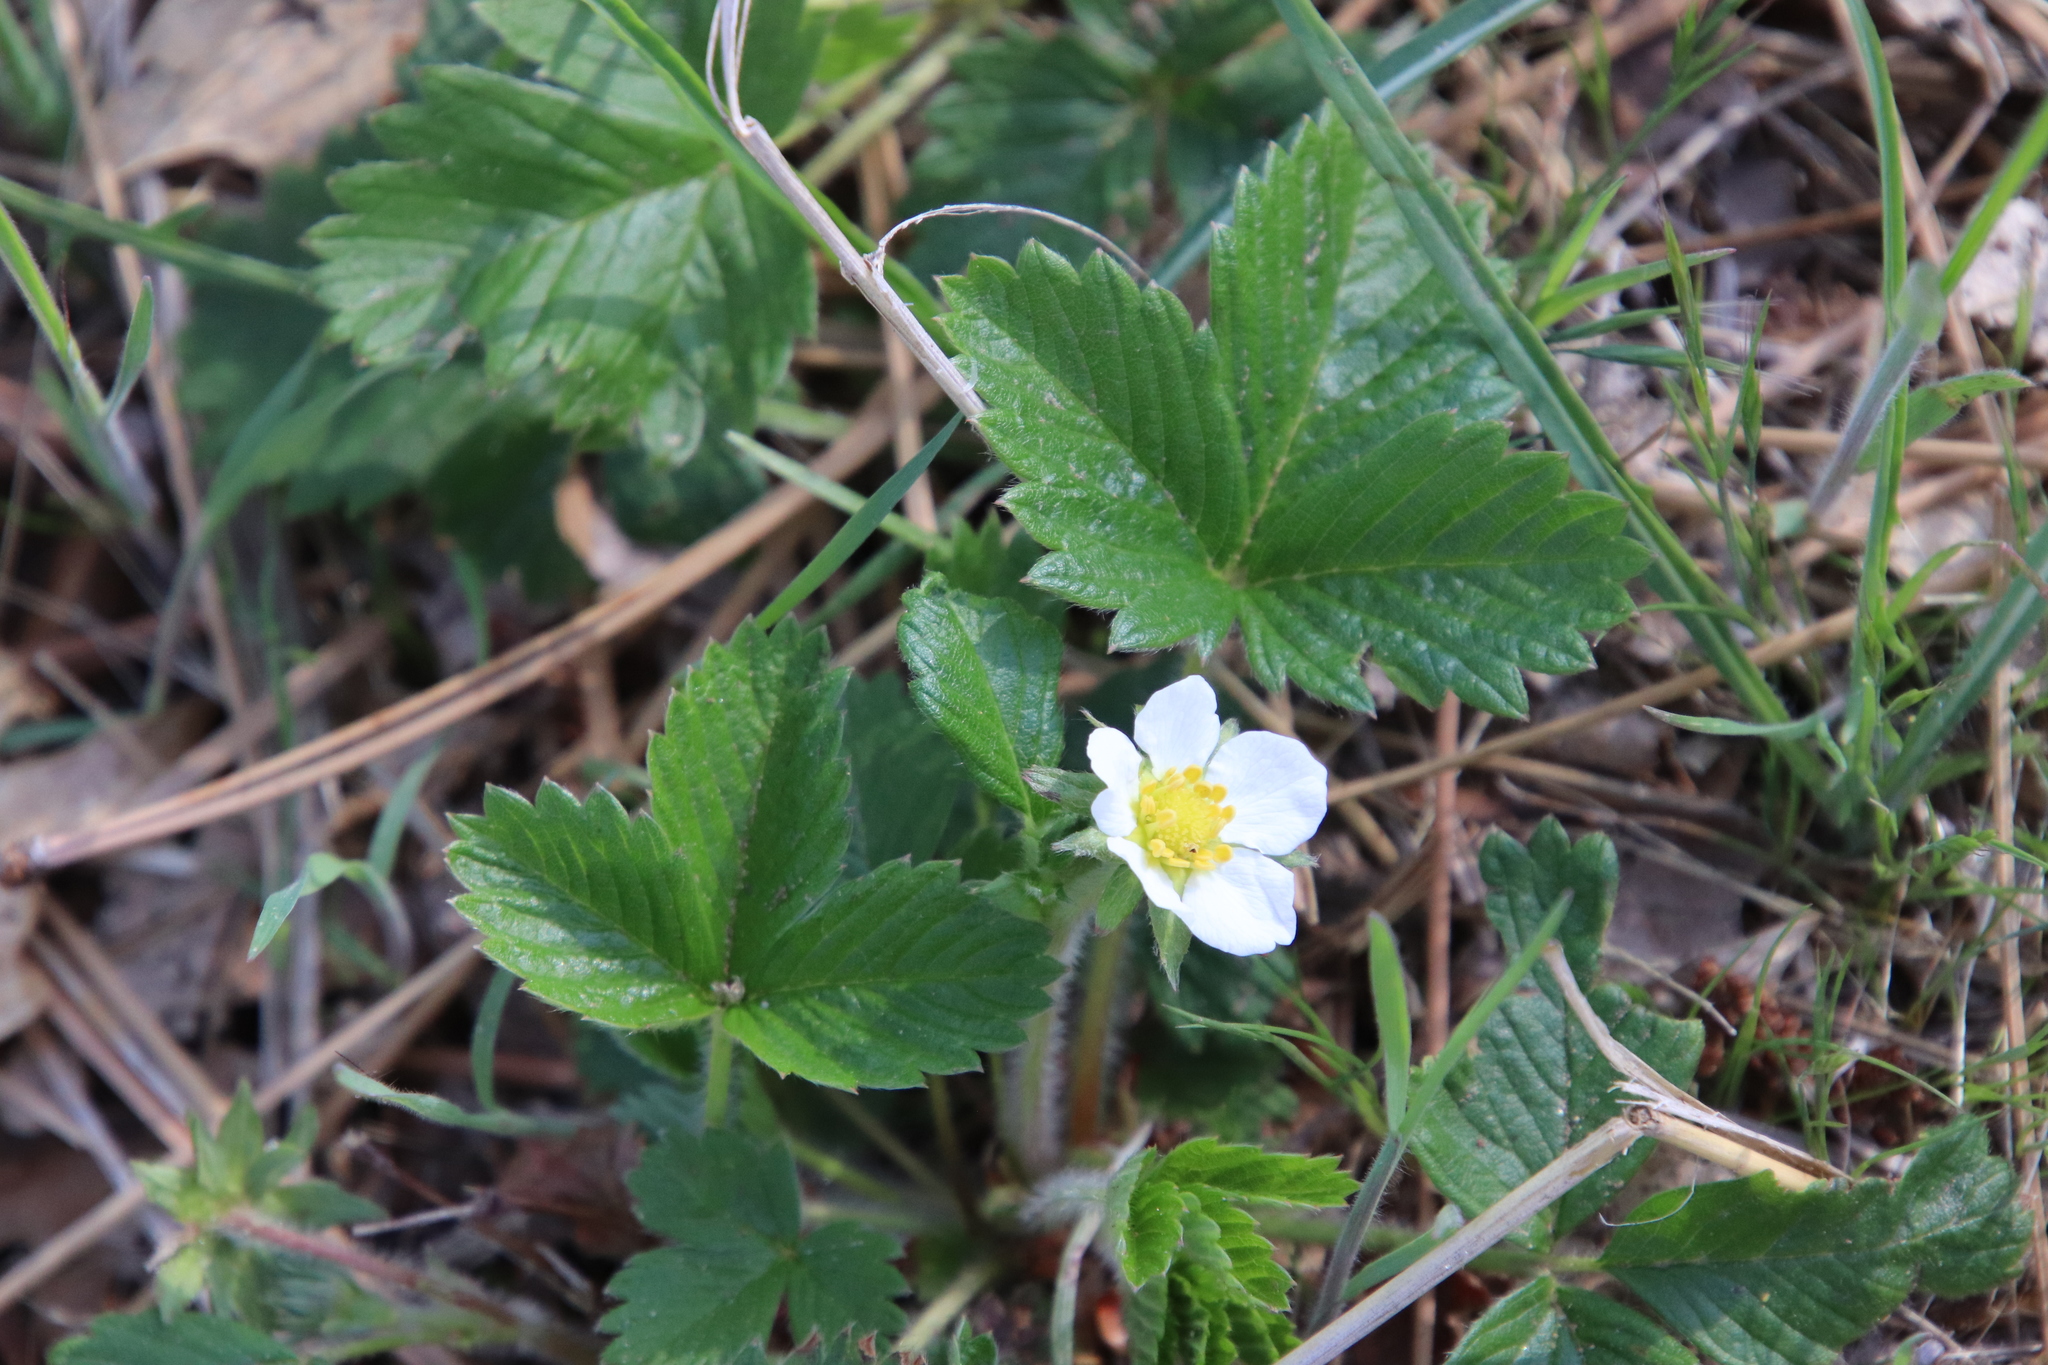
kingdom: Plantae
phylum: Tracheophyta
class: Magnoliopsida
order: Rosales
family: Rosaceae
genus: Fragaria
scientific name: Fragaria vesca
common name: Wild strawberry
